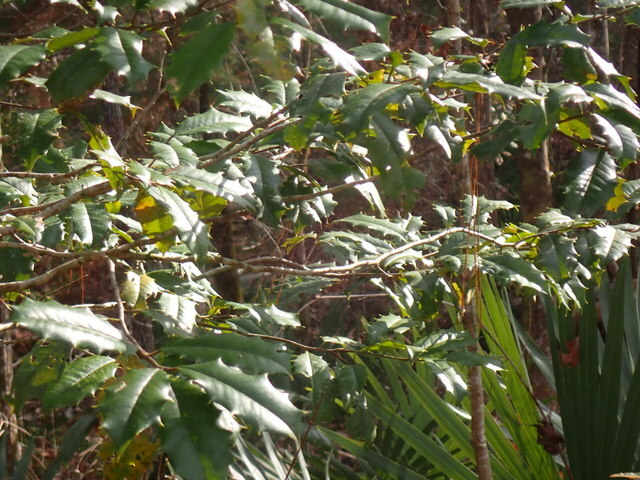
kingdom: Plantae
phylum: Tracheophyta
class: Magnoliopsida
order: Aquifoliales
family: Aquifoliaceae
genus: Ilex
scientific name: Ilex opaca
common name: American holly
